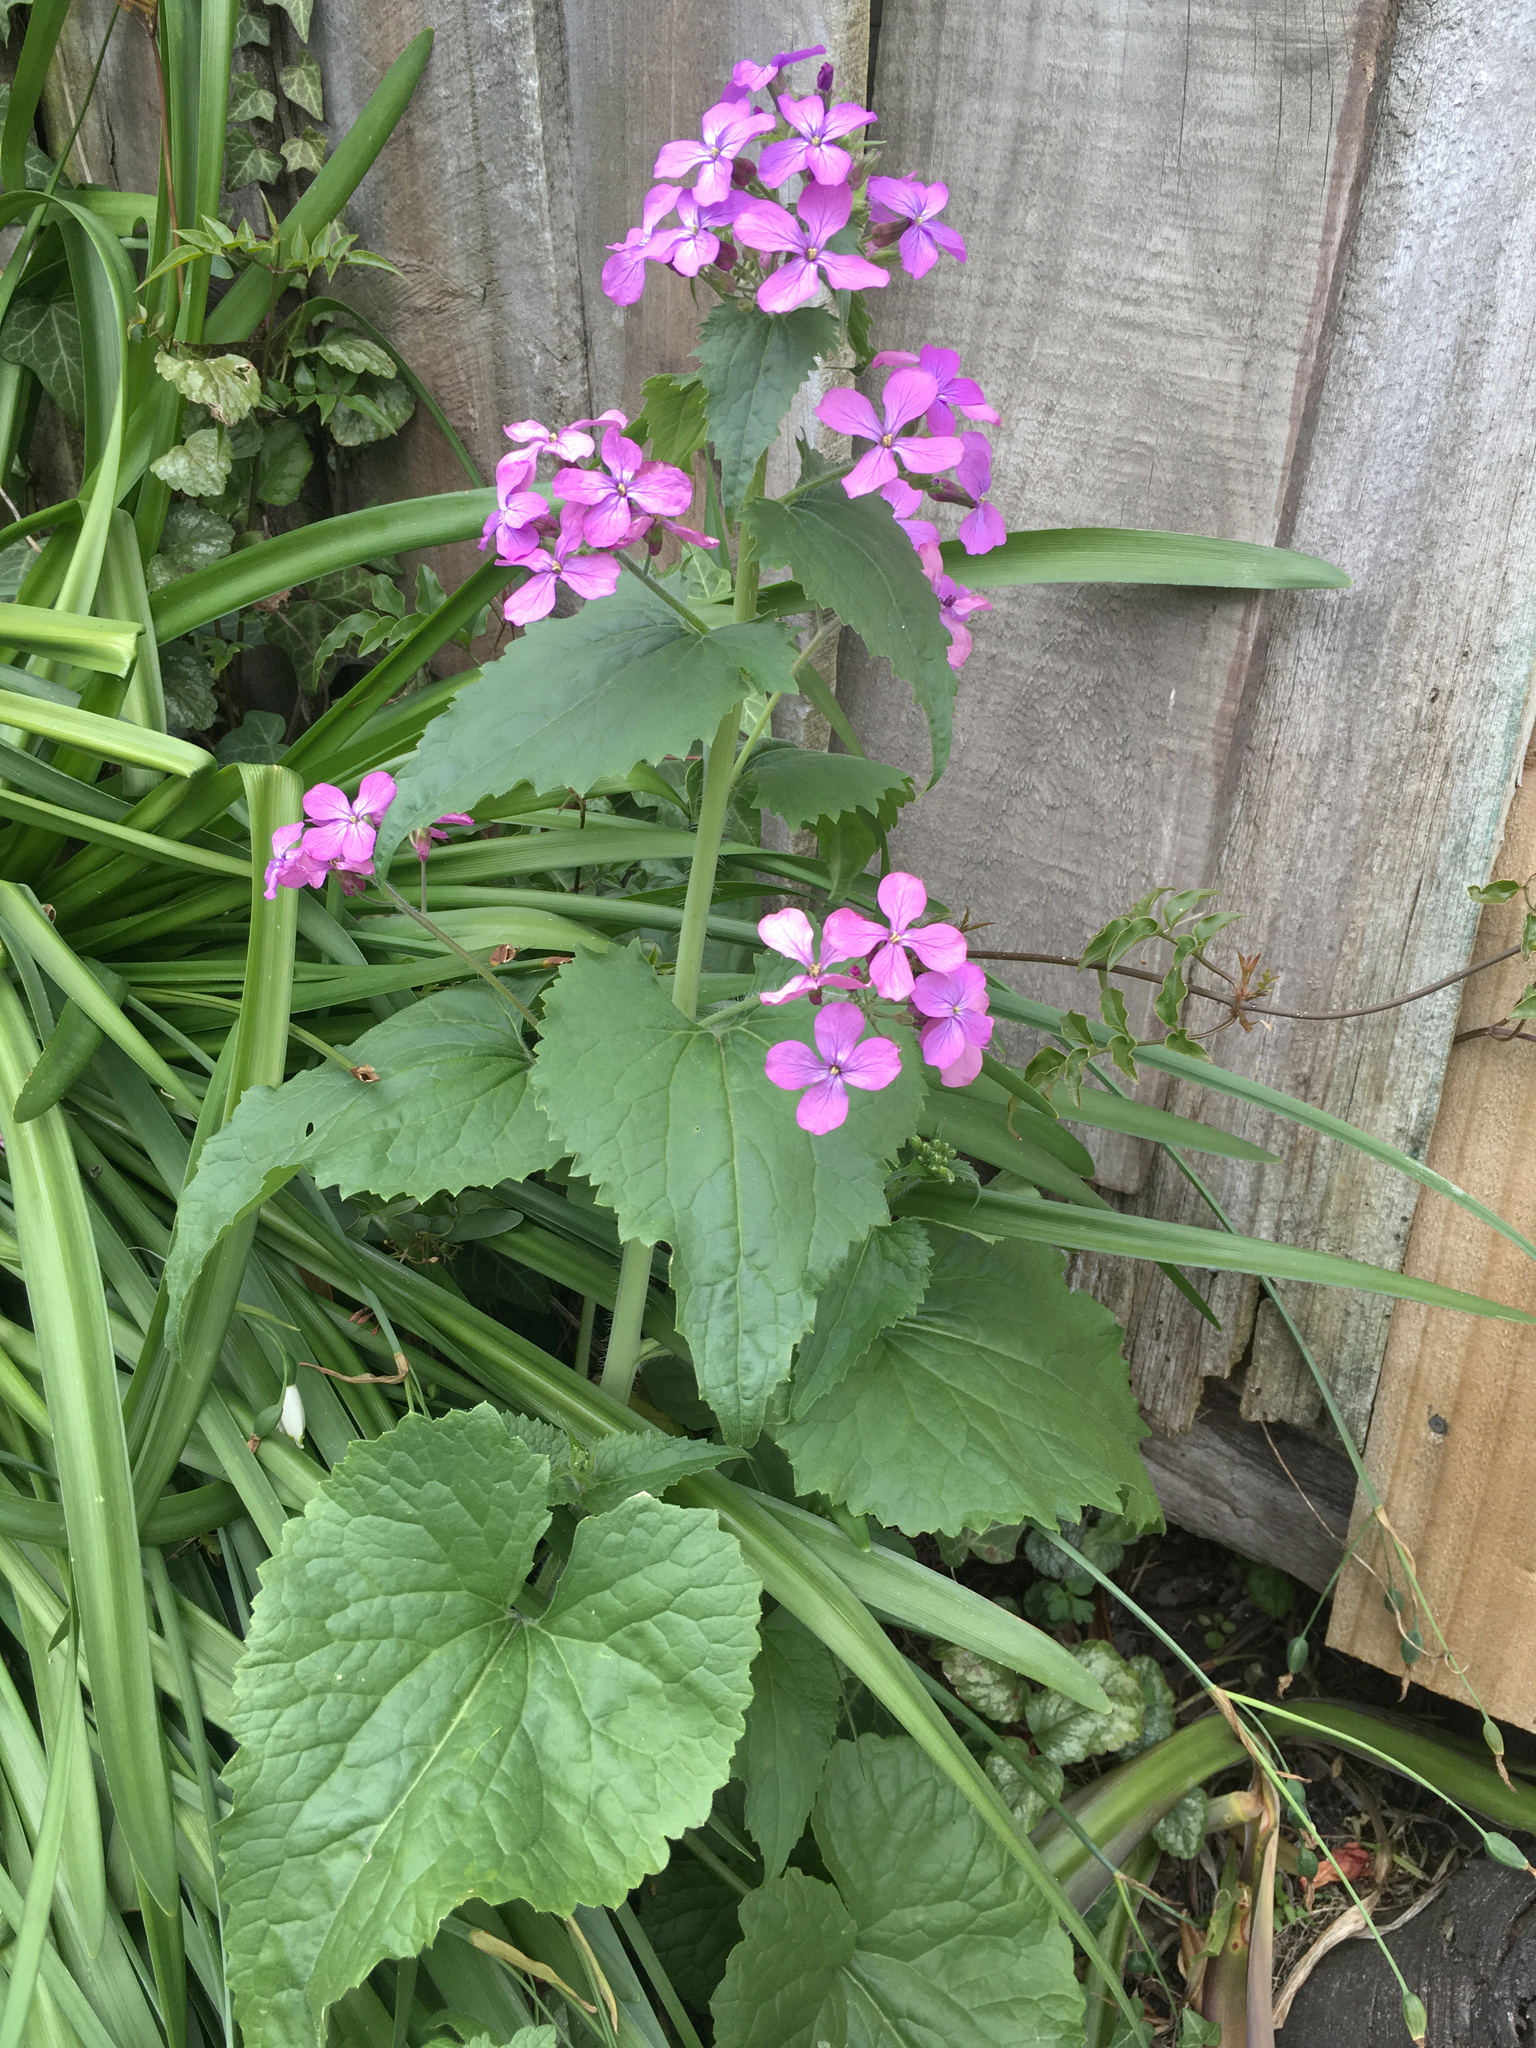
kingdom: Plantae
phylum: Tracheophyta
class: Magnoliopsida
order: Brassicales
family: Brassicaceae
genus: Lunaria
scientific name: Lunaria annua
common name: Honesty
